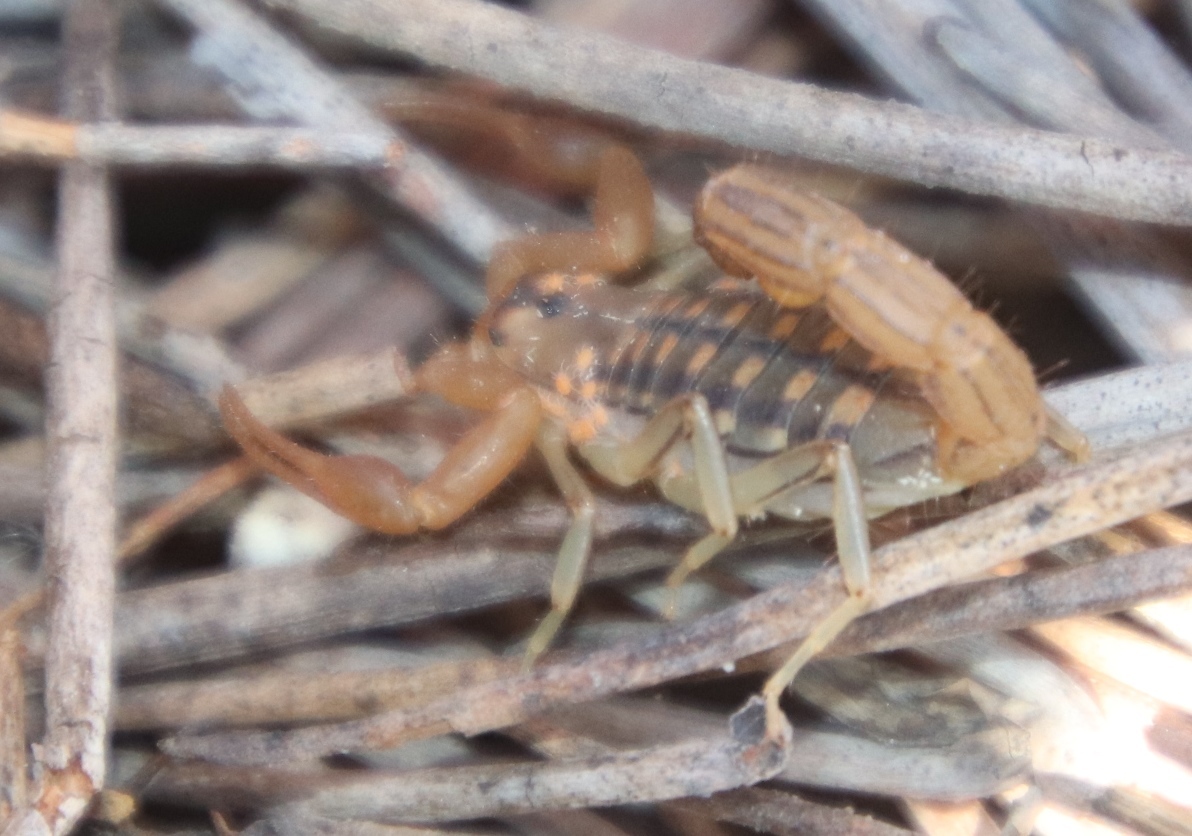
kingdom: Animalia
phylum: Arthropoda
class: Arachnida
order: Scorpiones
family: Buthidae
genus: Uroplectes
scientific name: Uroplectes carinatus
